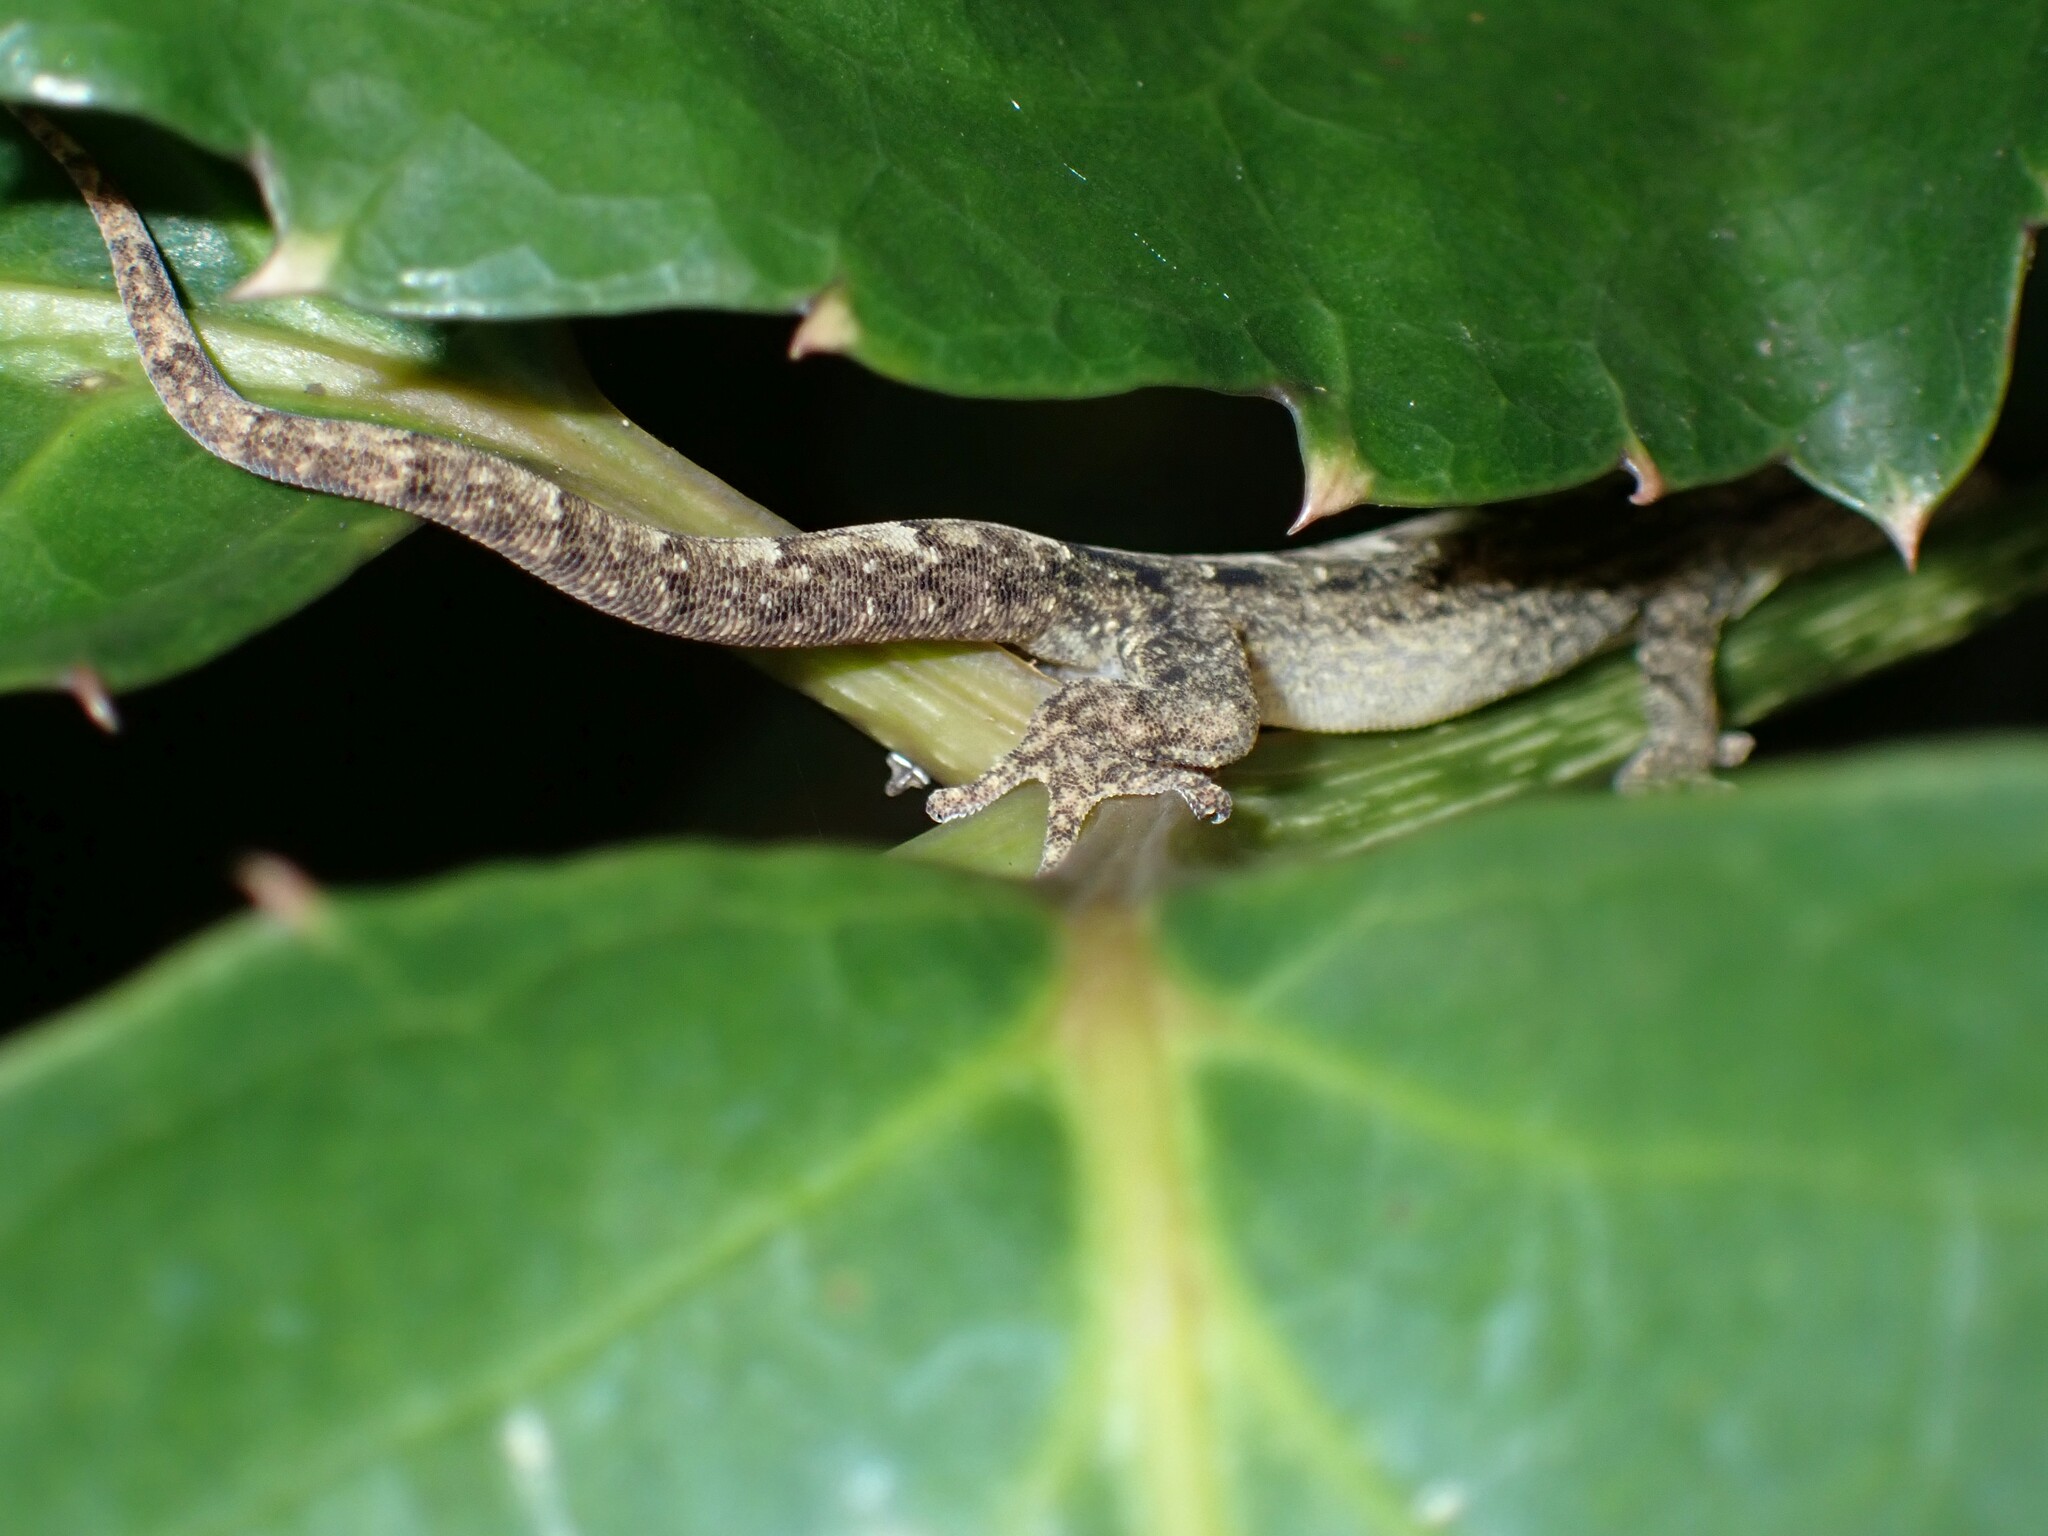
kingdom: Animalia
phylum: Chordata
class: Squamata
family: Gekkonidae
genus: Lepidodactylus
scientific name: Lepidodactylus lugubris
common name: Mourning gecko
